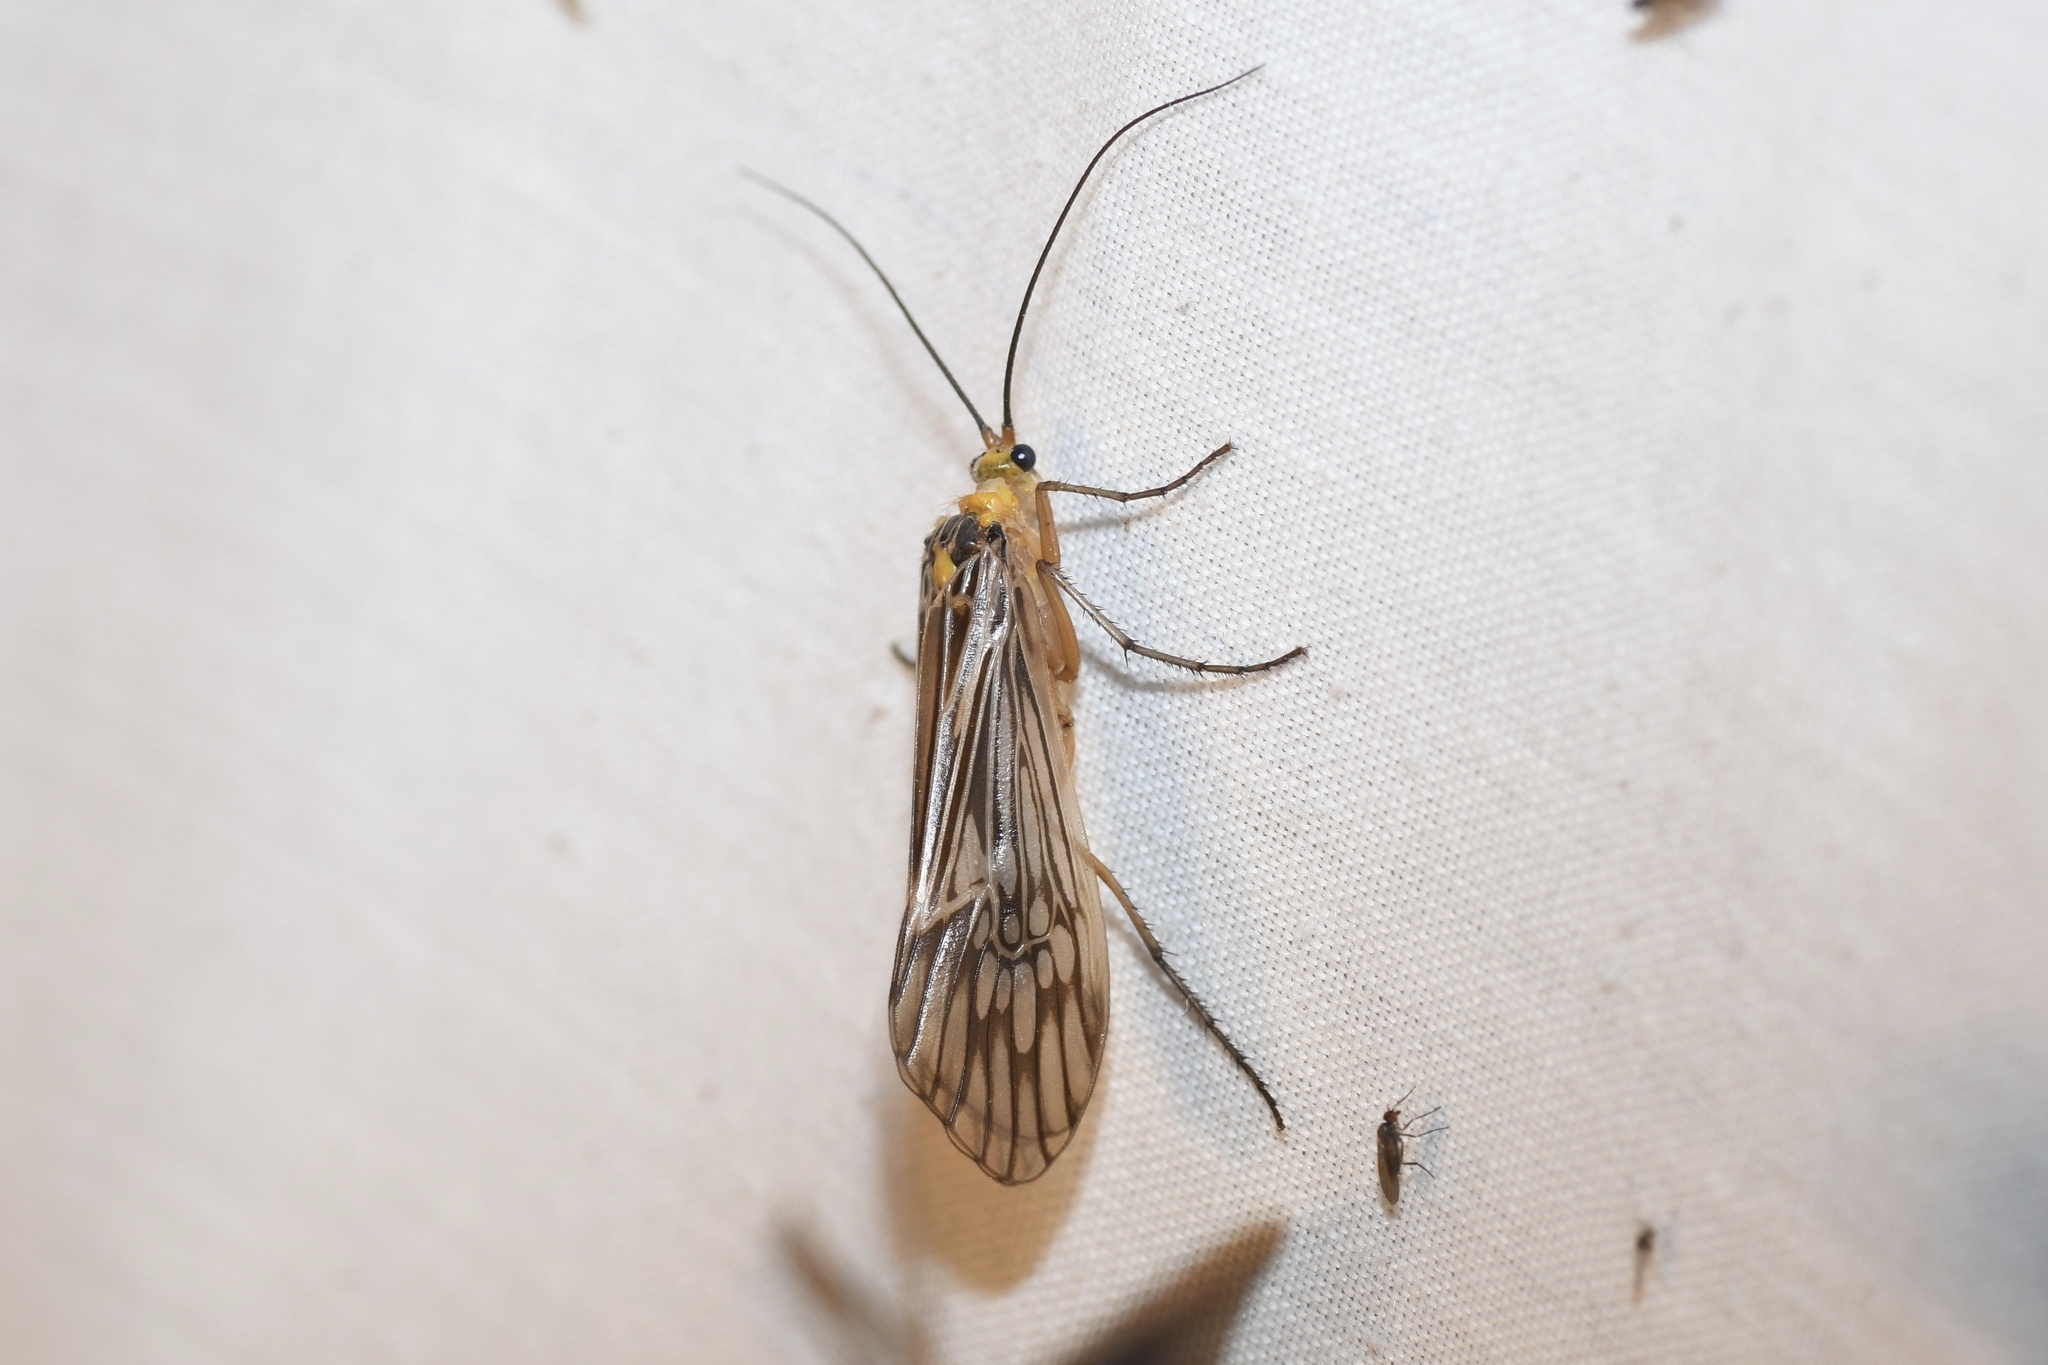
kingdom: Animalia
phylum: Arthropoda
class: Insecta
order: Trichoptera
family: Limnephilidae
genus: Hydatophylax
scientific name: Hydatophylax argus
